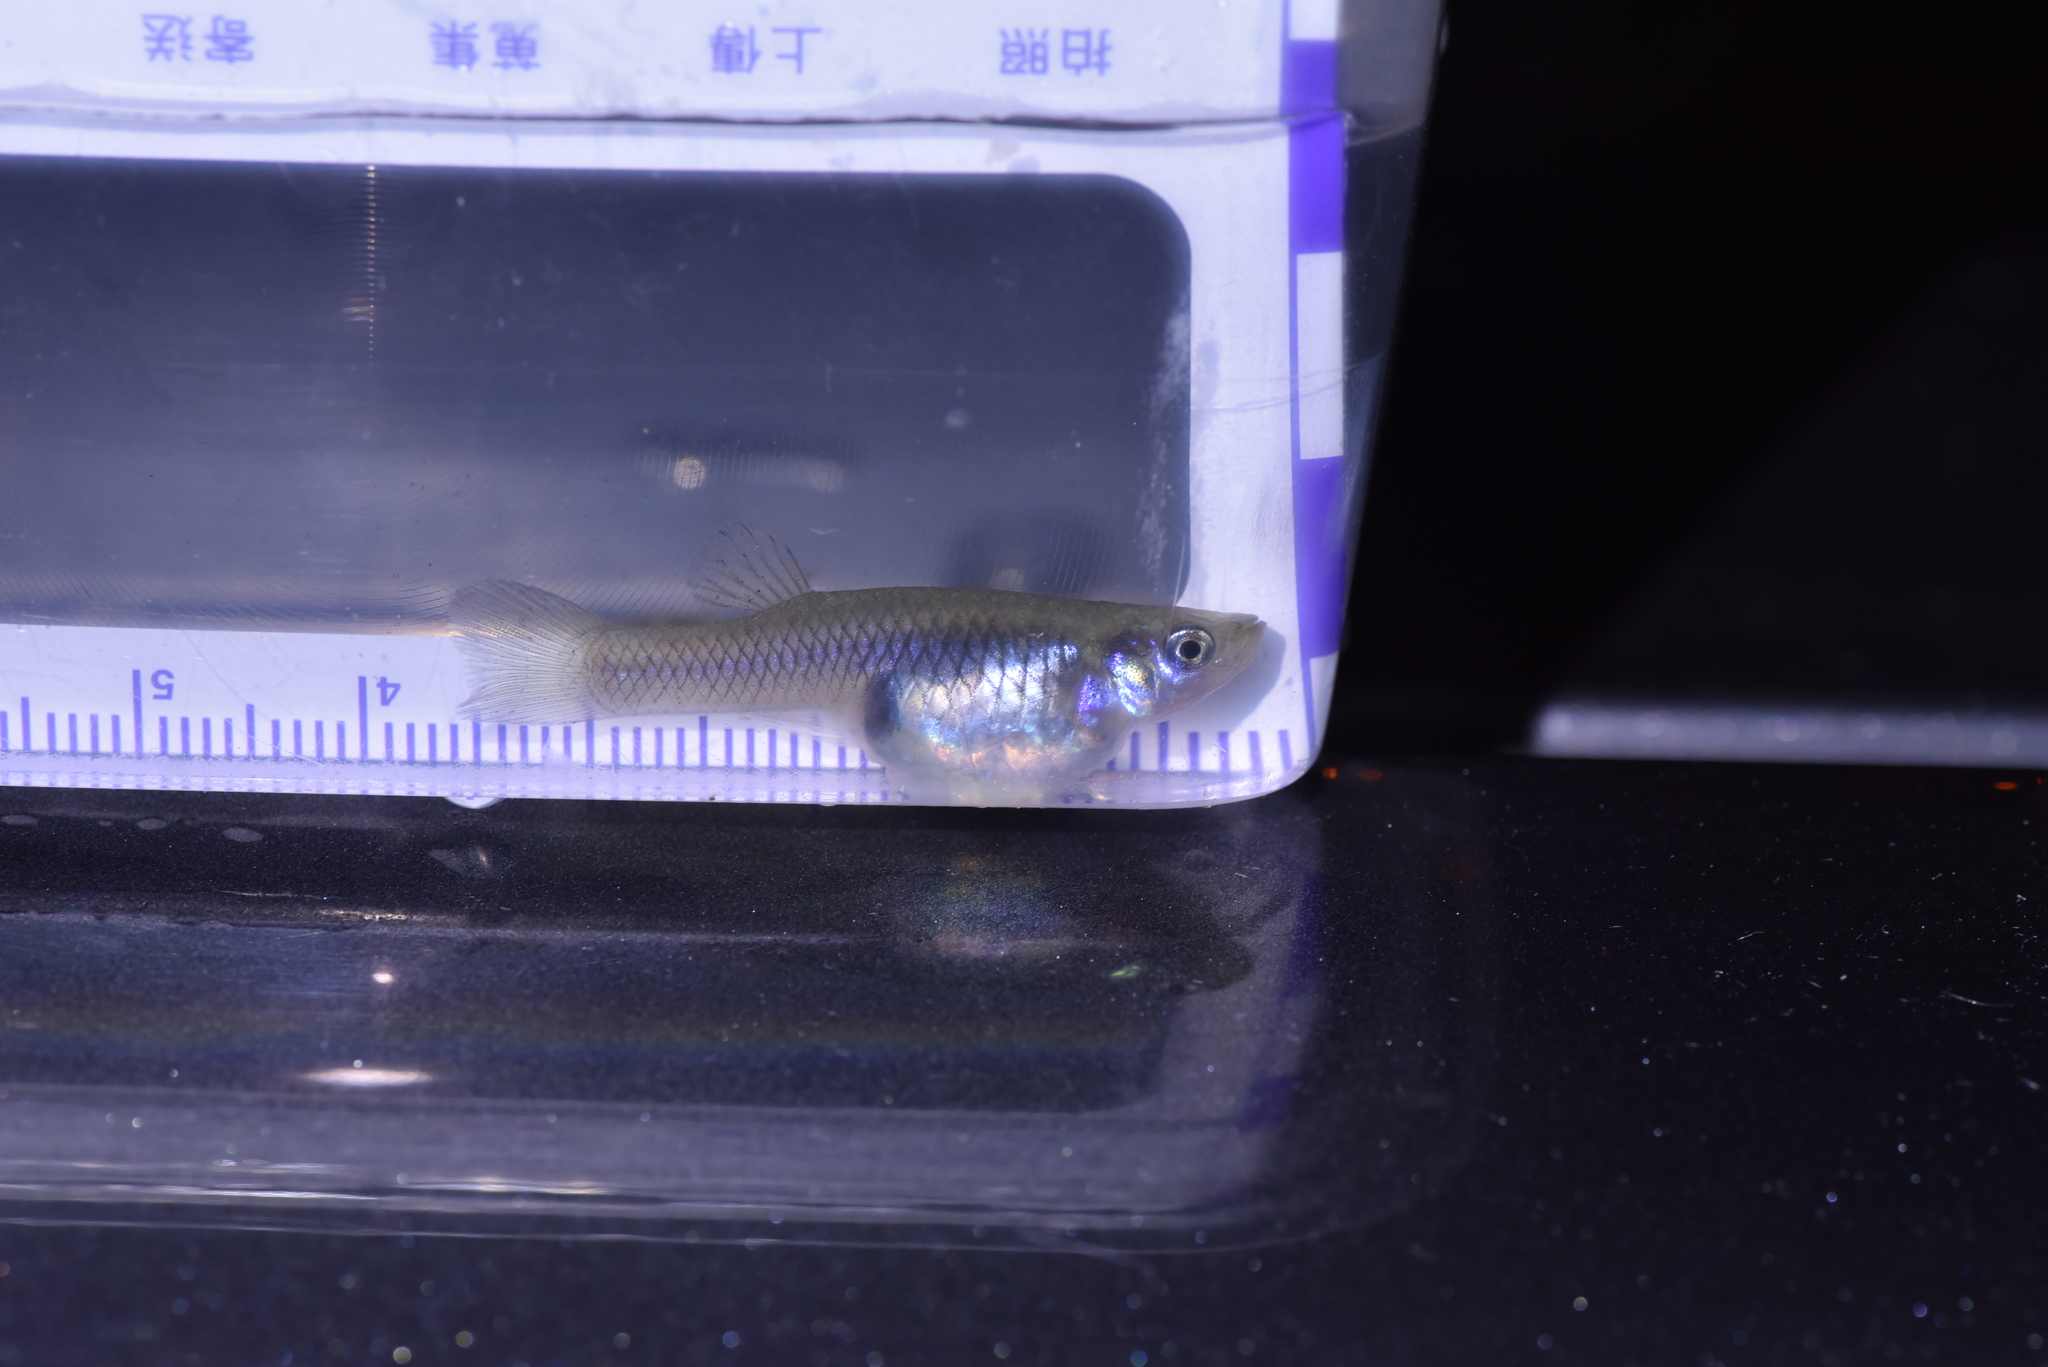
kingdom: Animalia
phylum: Chordata
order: Cyprinodontiformes
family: Poeciliidae
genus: Gambusia
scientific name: Gambusia affinis
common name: Mosquitofish
